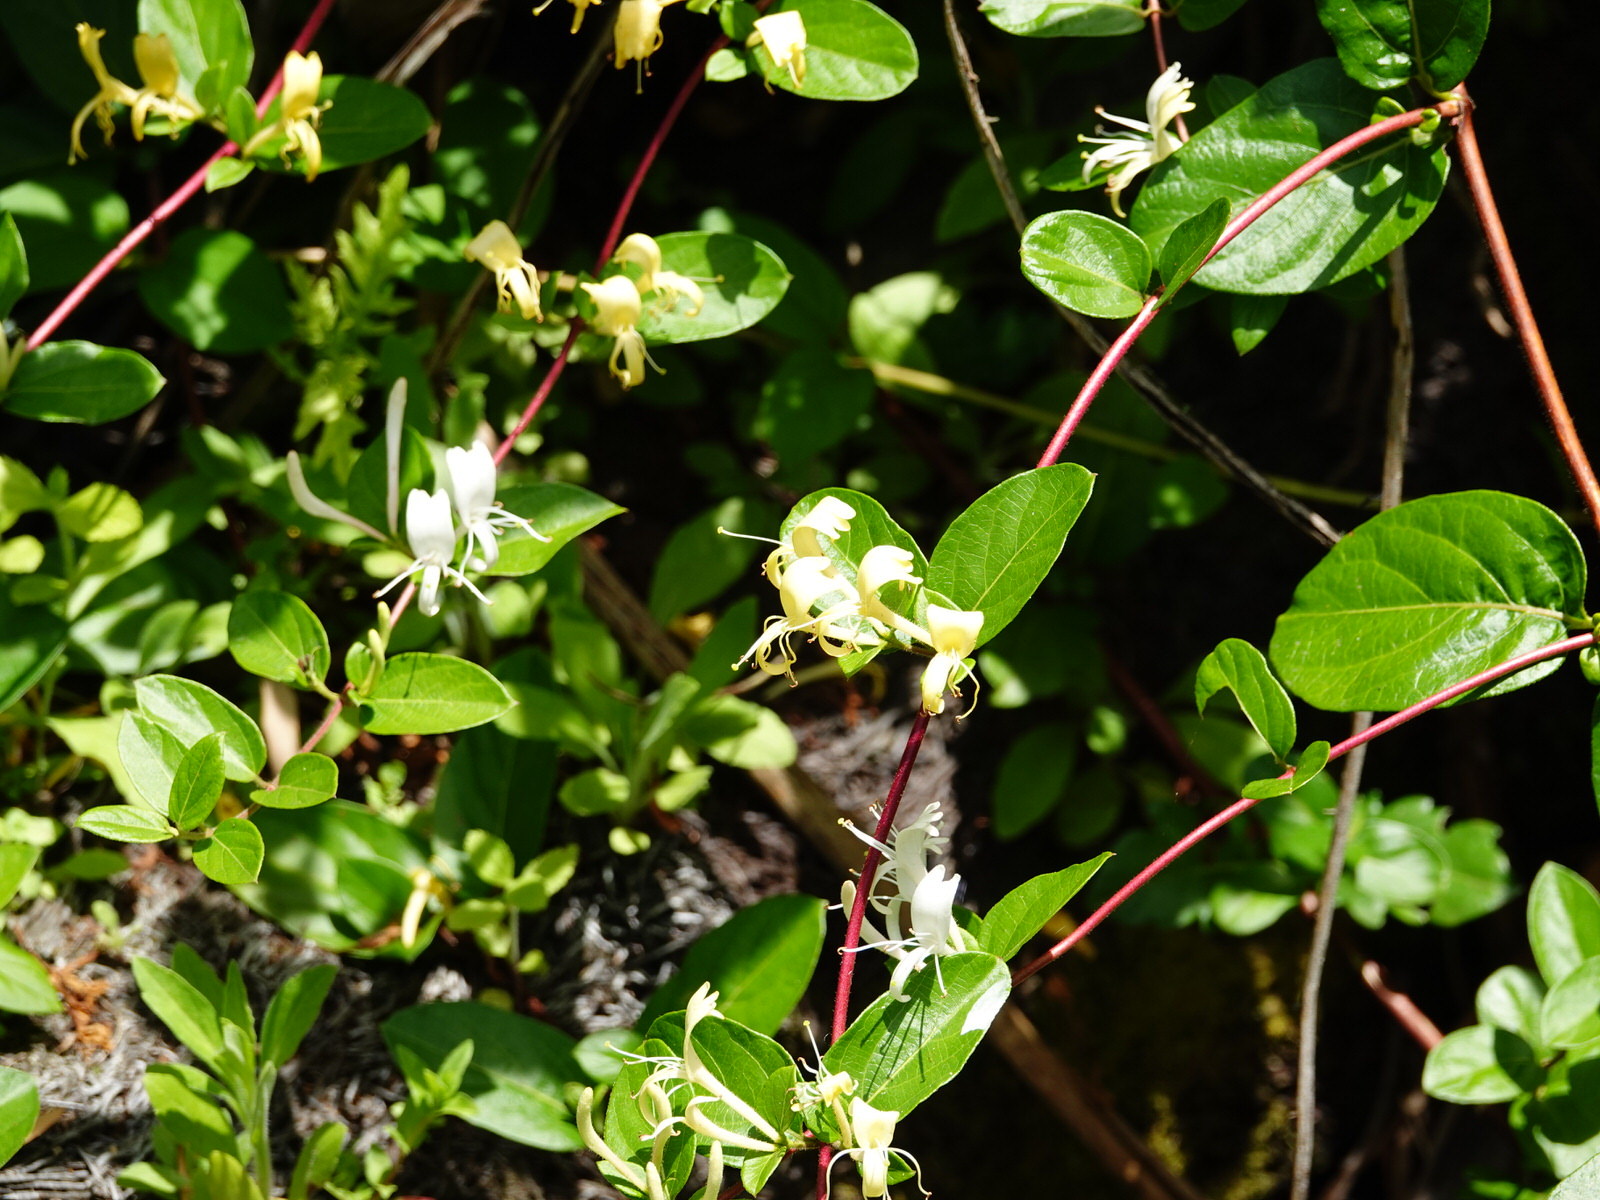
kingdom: Plantae
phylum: Tracheophyta
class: Magnoliopsida
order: Dipsacales
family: Caprifoliaceae
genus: Lonicera
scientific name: Lonicera japonica
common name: Japanese honeysuckle
